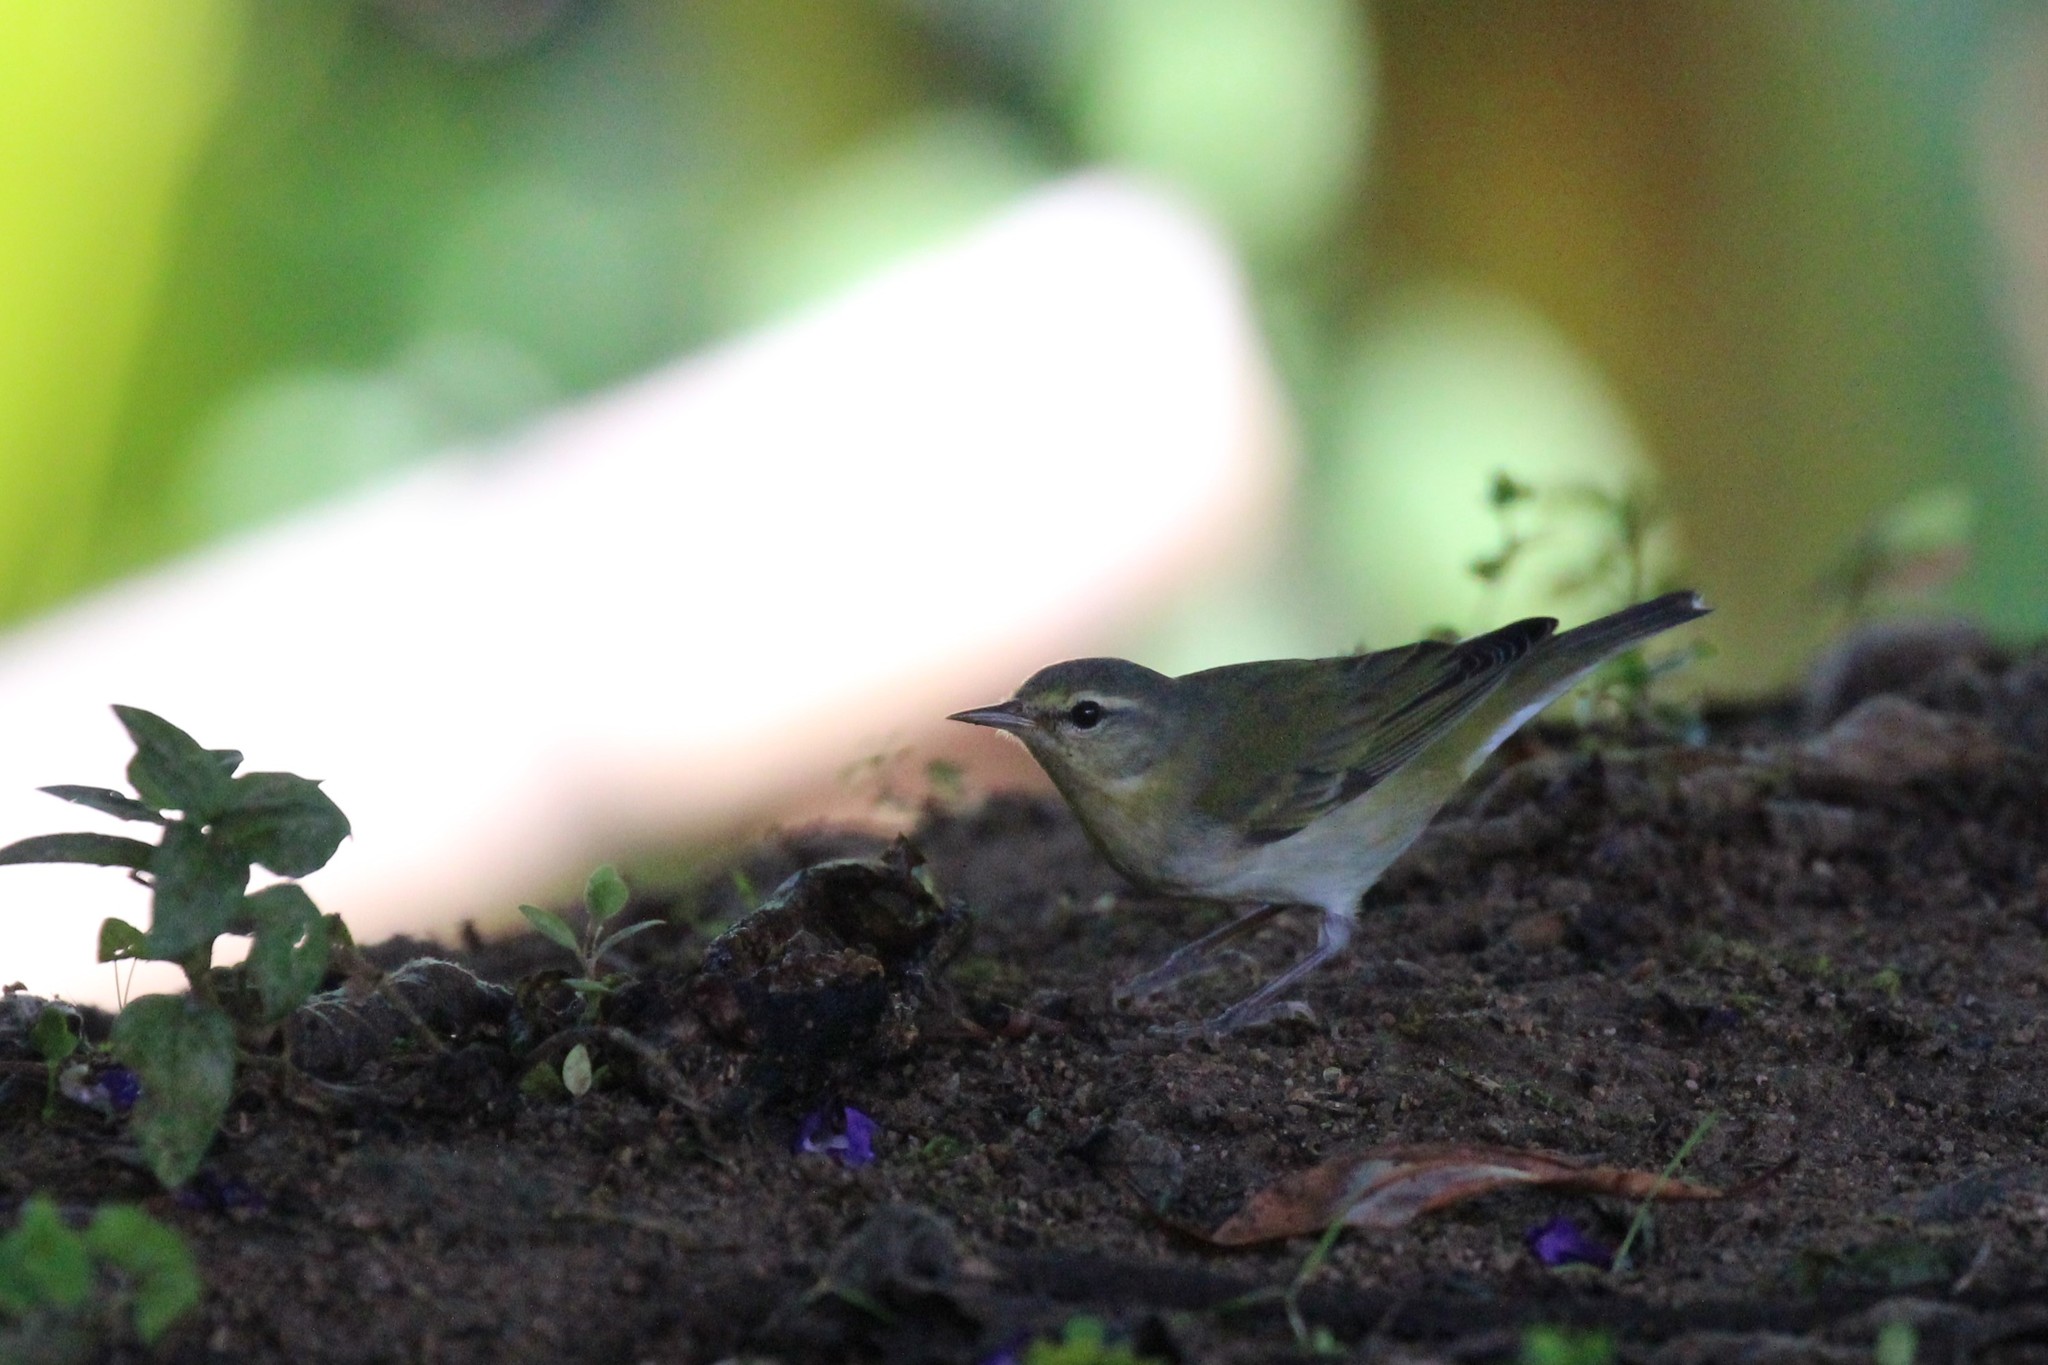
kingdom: Animalia
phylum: Chordata
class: Aves
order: Passeriformes
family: Parulidae
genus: Leiothlypis
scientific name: Leiothlypis peregrina
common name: Tennessee warbler
